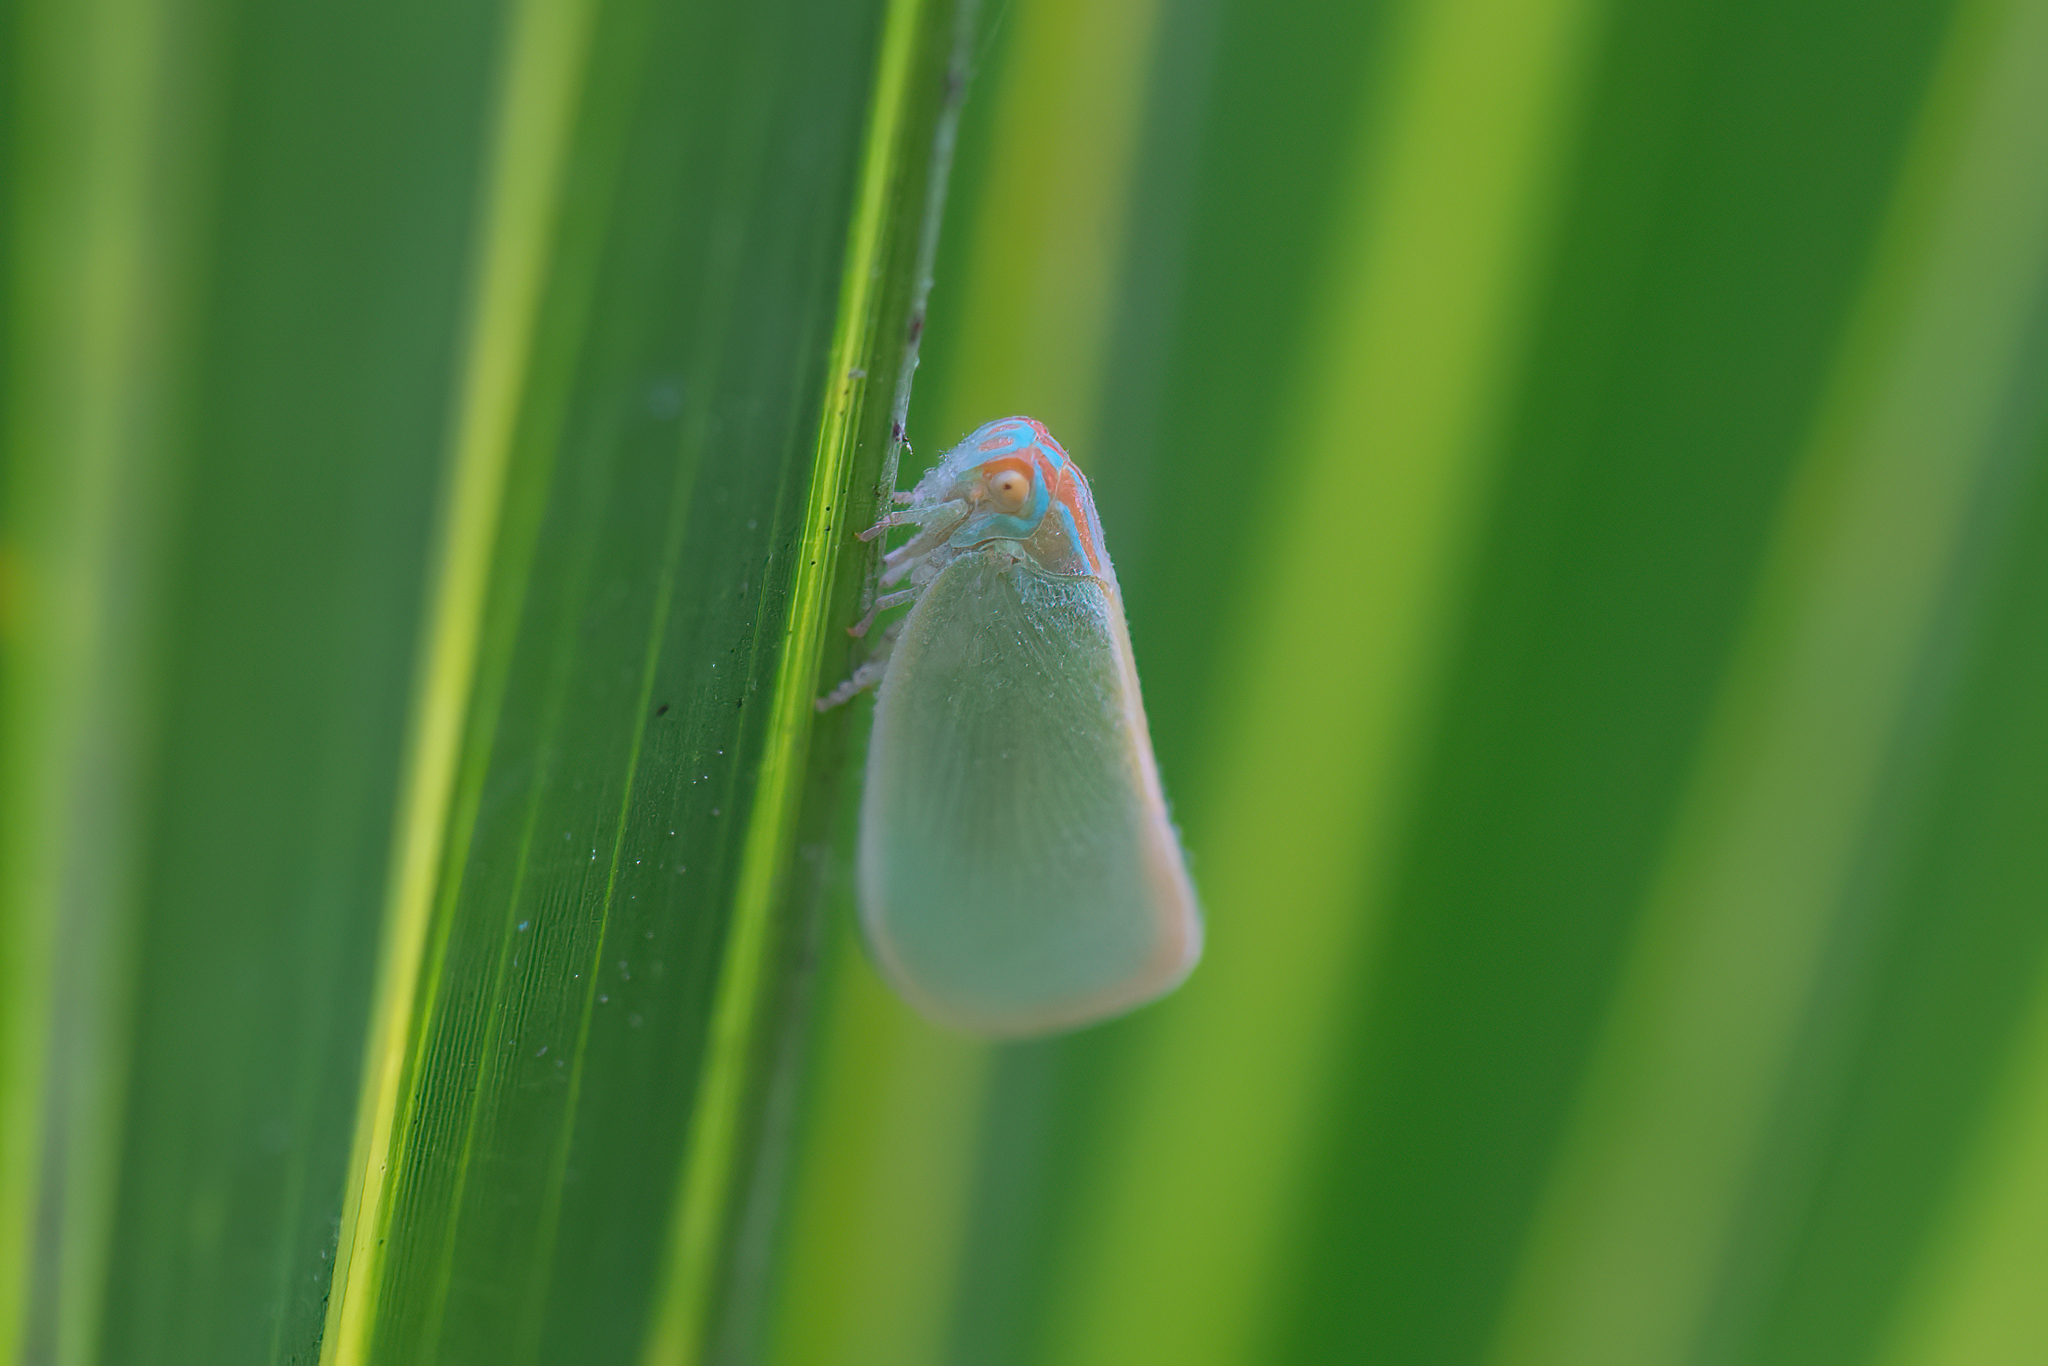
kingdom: Animalia
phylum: Arthropoda
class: Insecta
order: Hemiptera
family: Flatidae
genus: Ormenaria
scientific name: Ormenaria rufifascia
